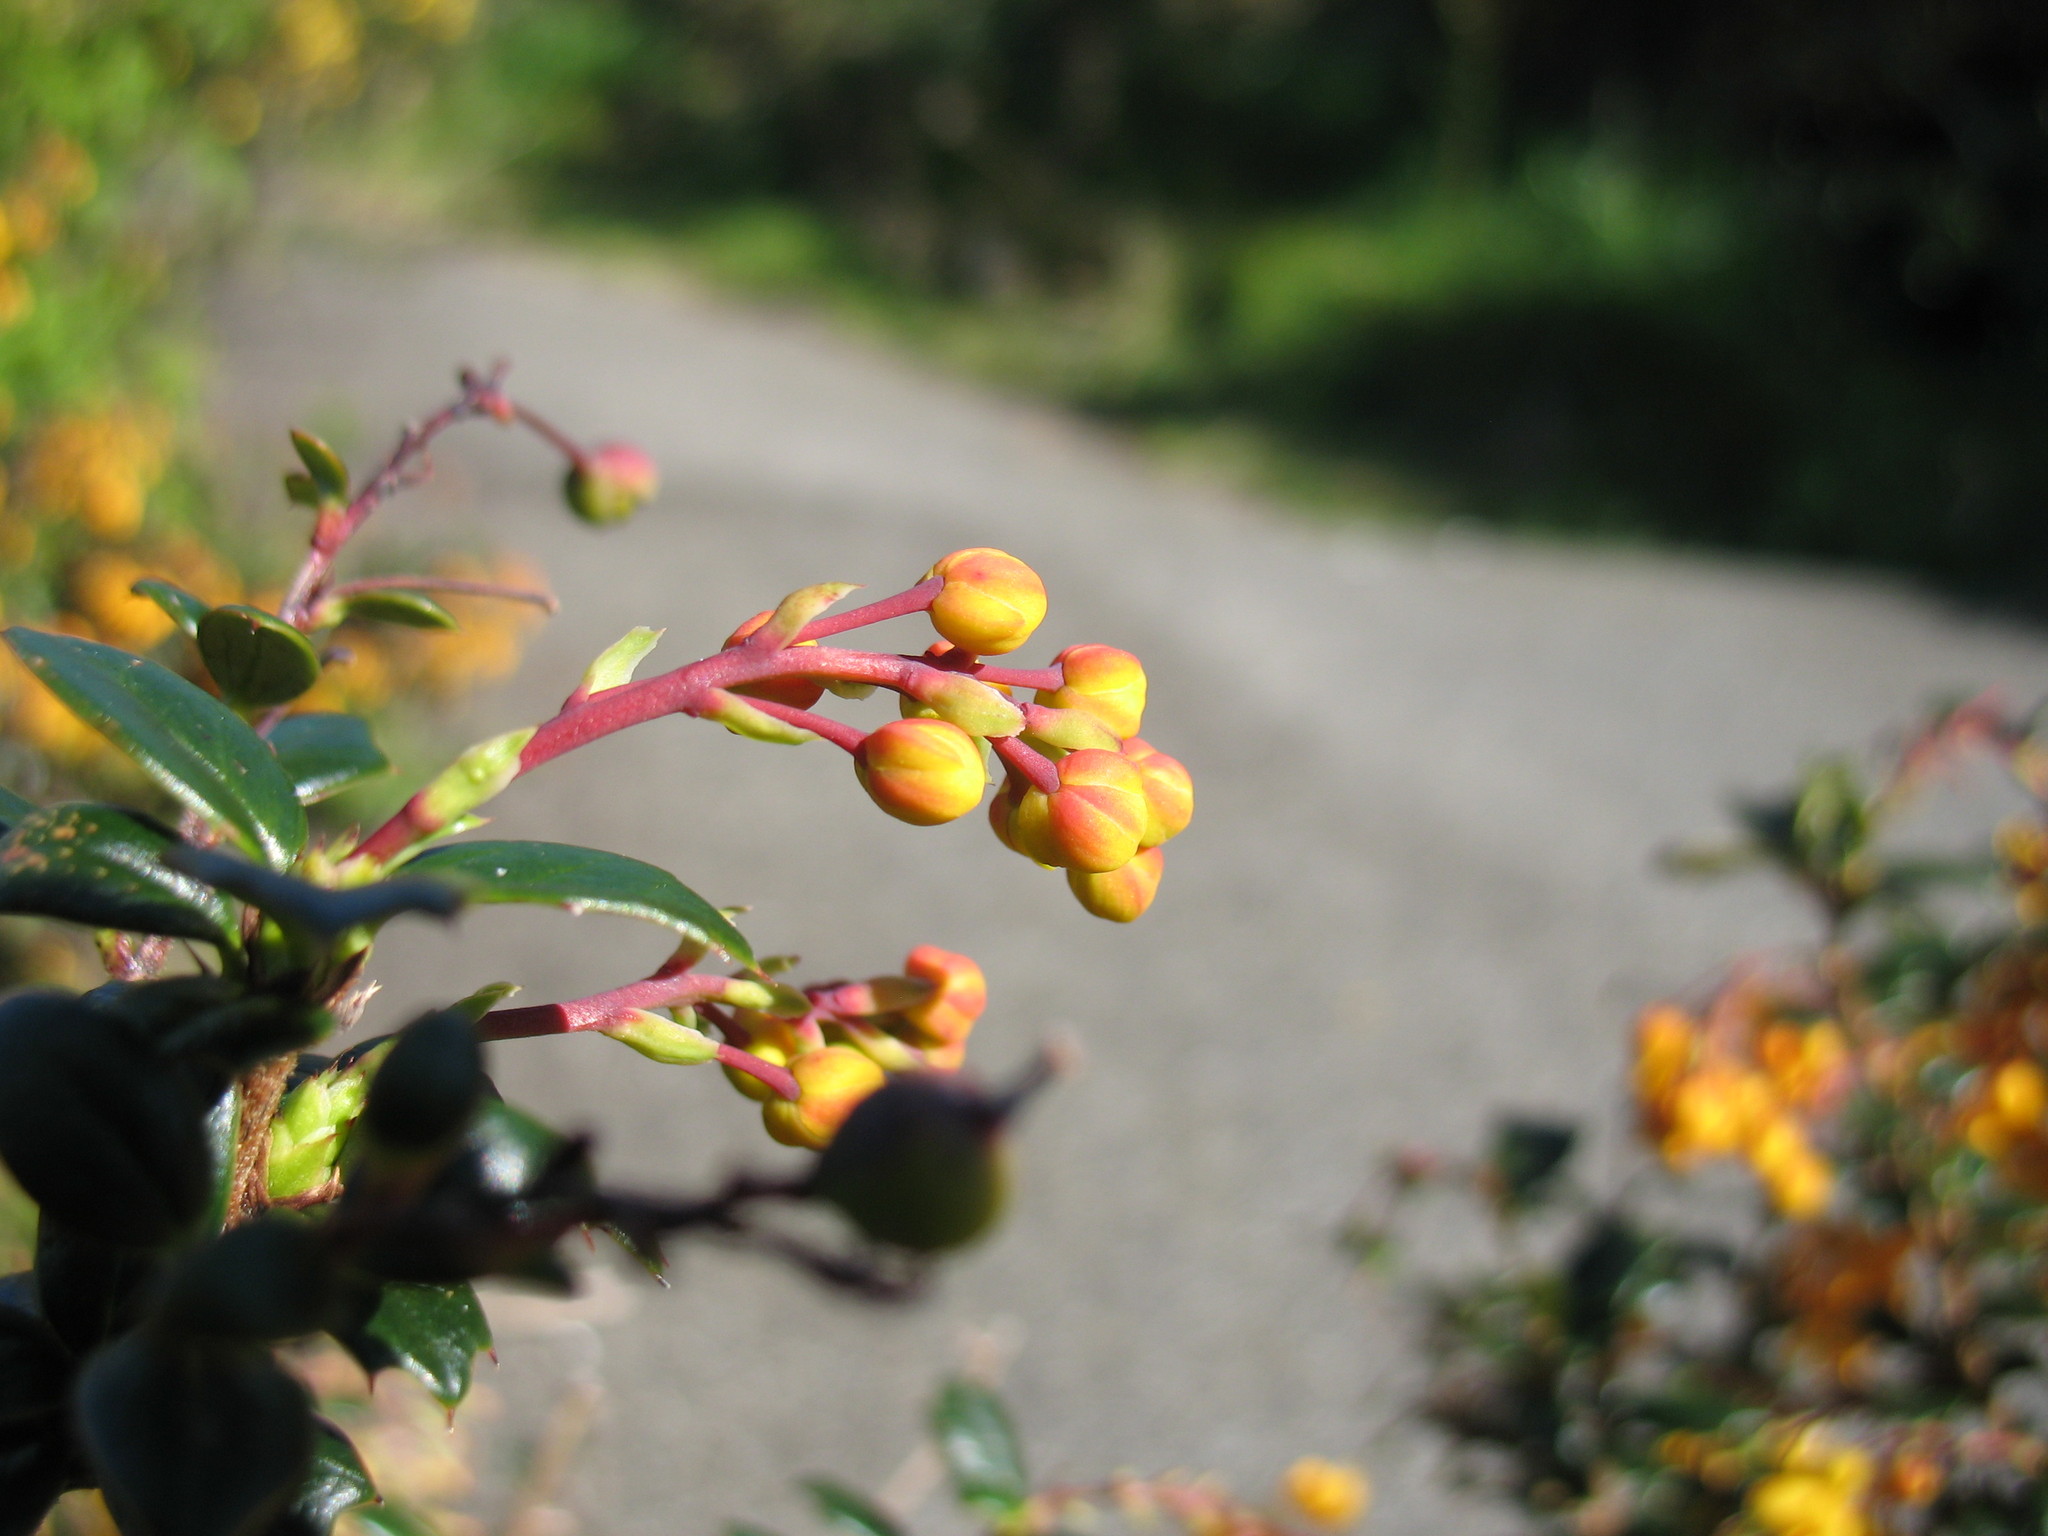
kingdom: Plantae
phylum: Tracheophyta
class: Magnoliopsida
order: Ranunculales
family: Berberidaceae
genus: Berberis
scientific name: Berberis darwinii
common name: Darwin's barberry
